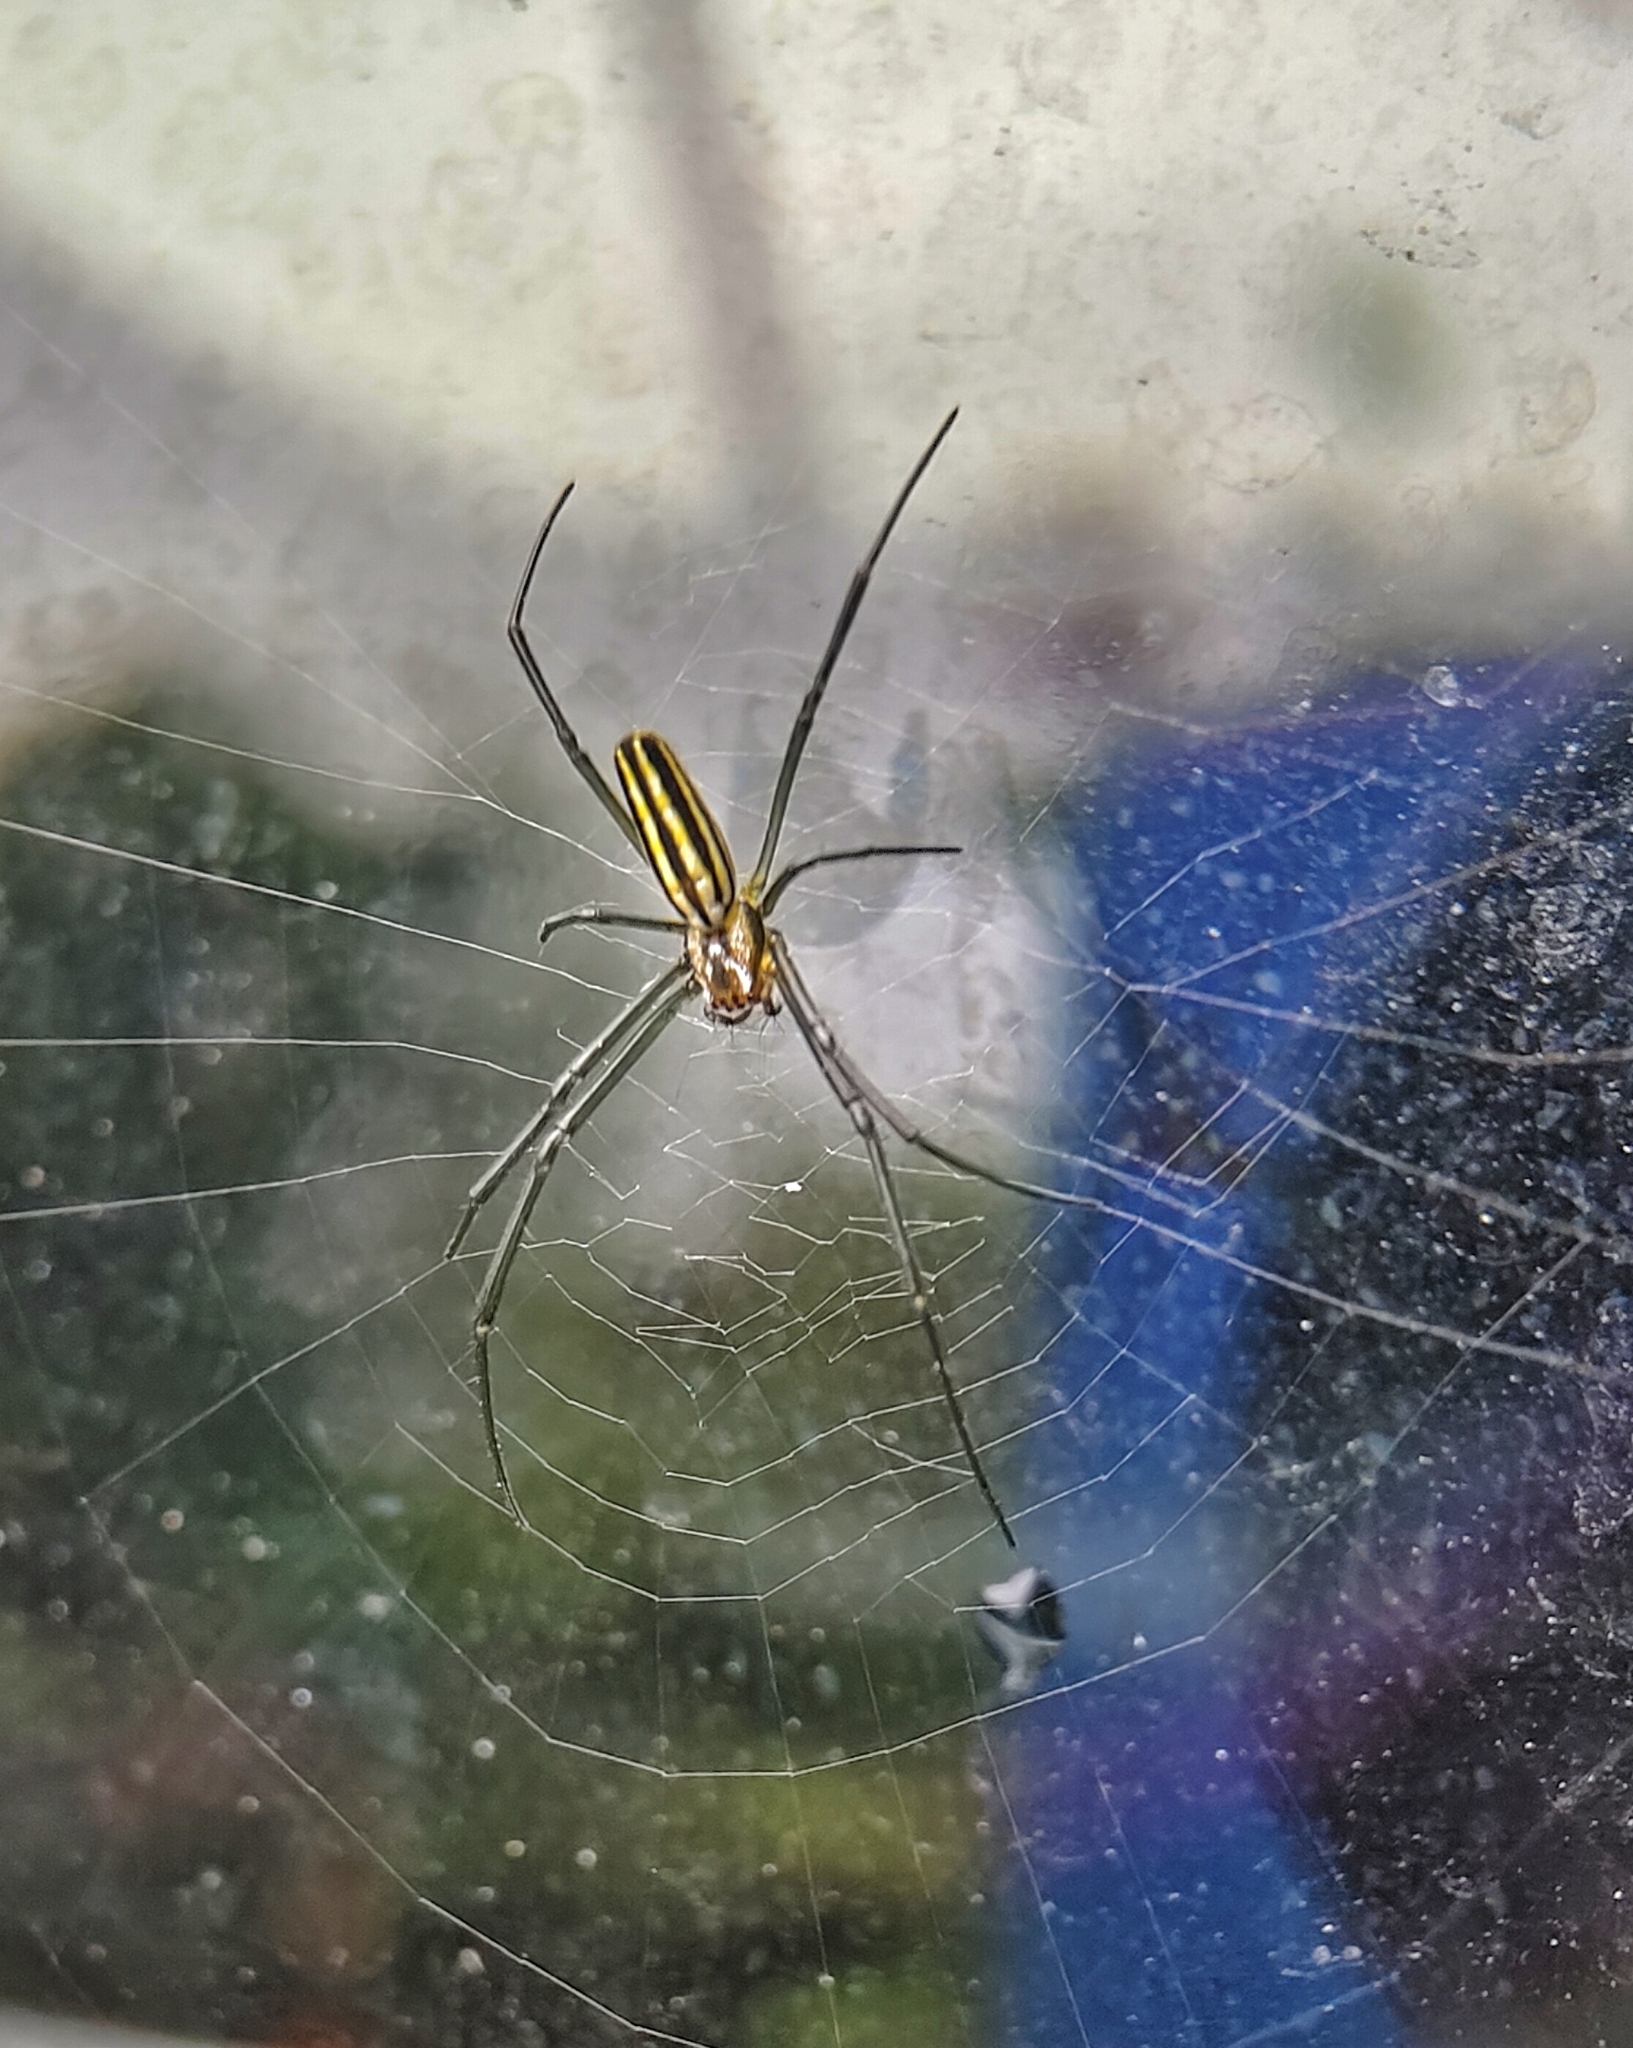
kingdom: Animalia
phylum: Arthropoda
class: Arachnida
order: Araneae
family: Araneidae
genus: Nephila
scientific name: Nephila pilipes
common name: Giant golden orb weaver
